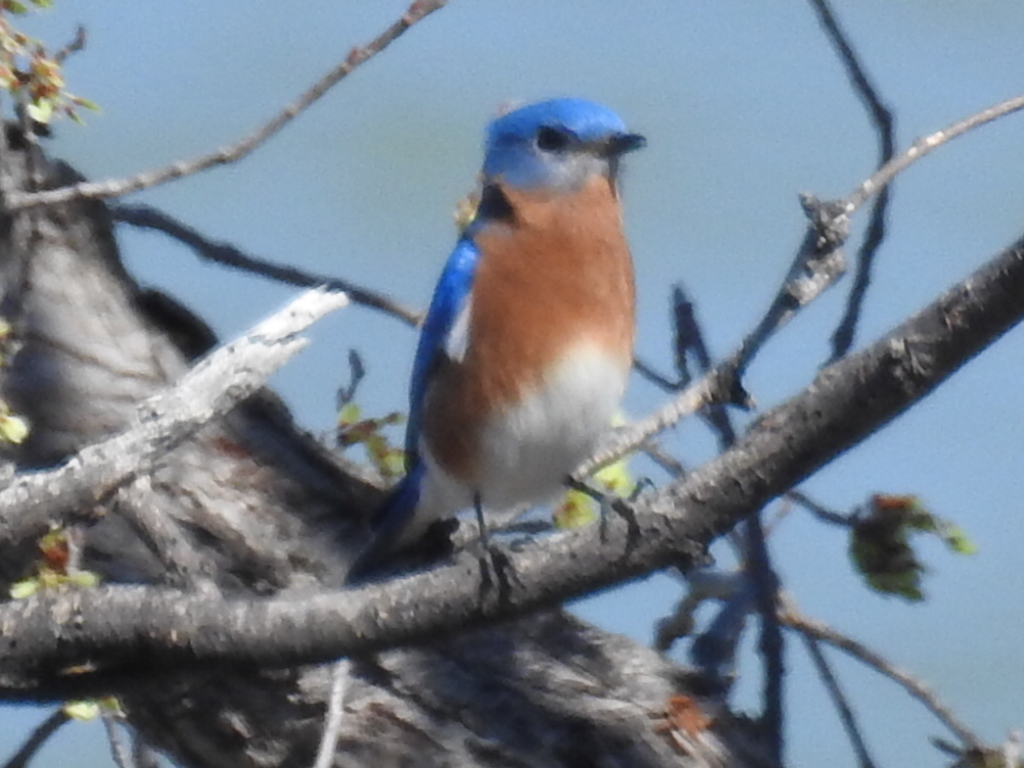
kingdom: Animalia
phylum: Chordata
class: Aves
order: Passeriformes
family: Turdidae
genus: Sialia
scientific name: Sialia sialis
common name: Eastern bluebird
